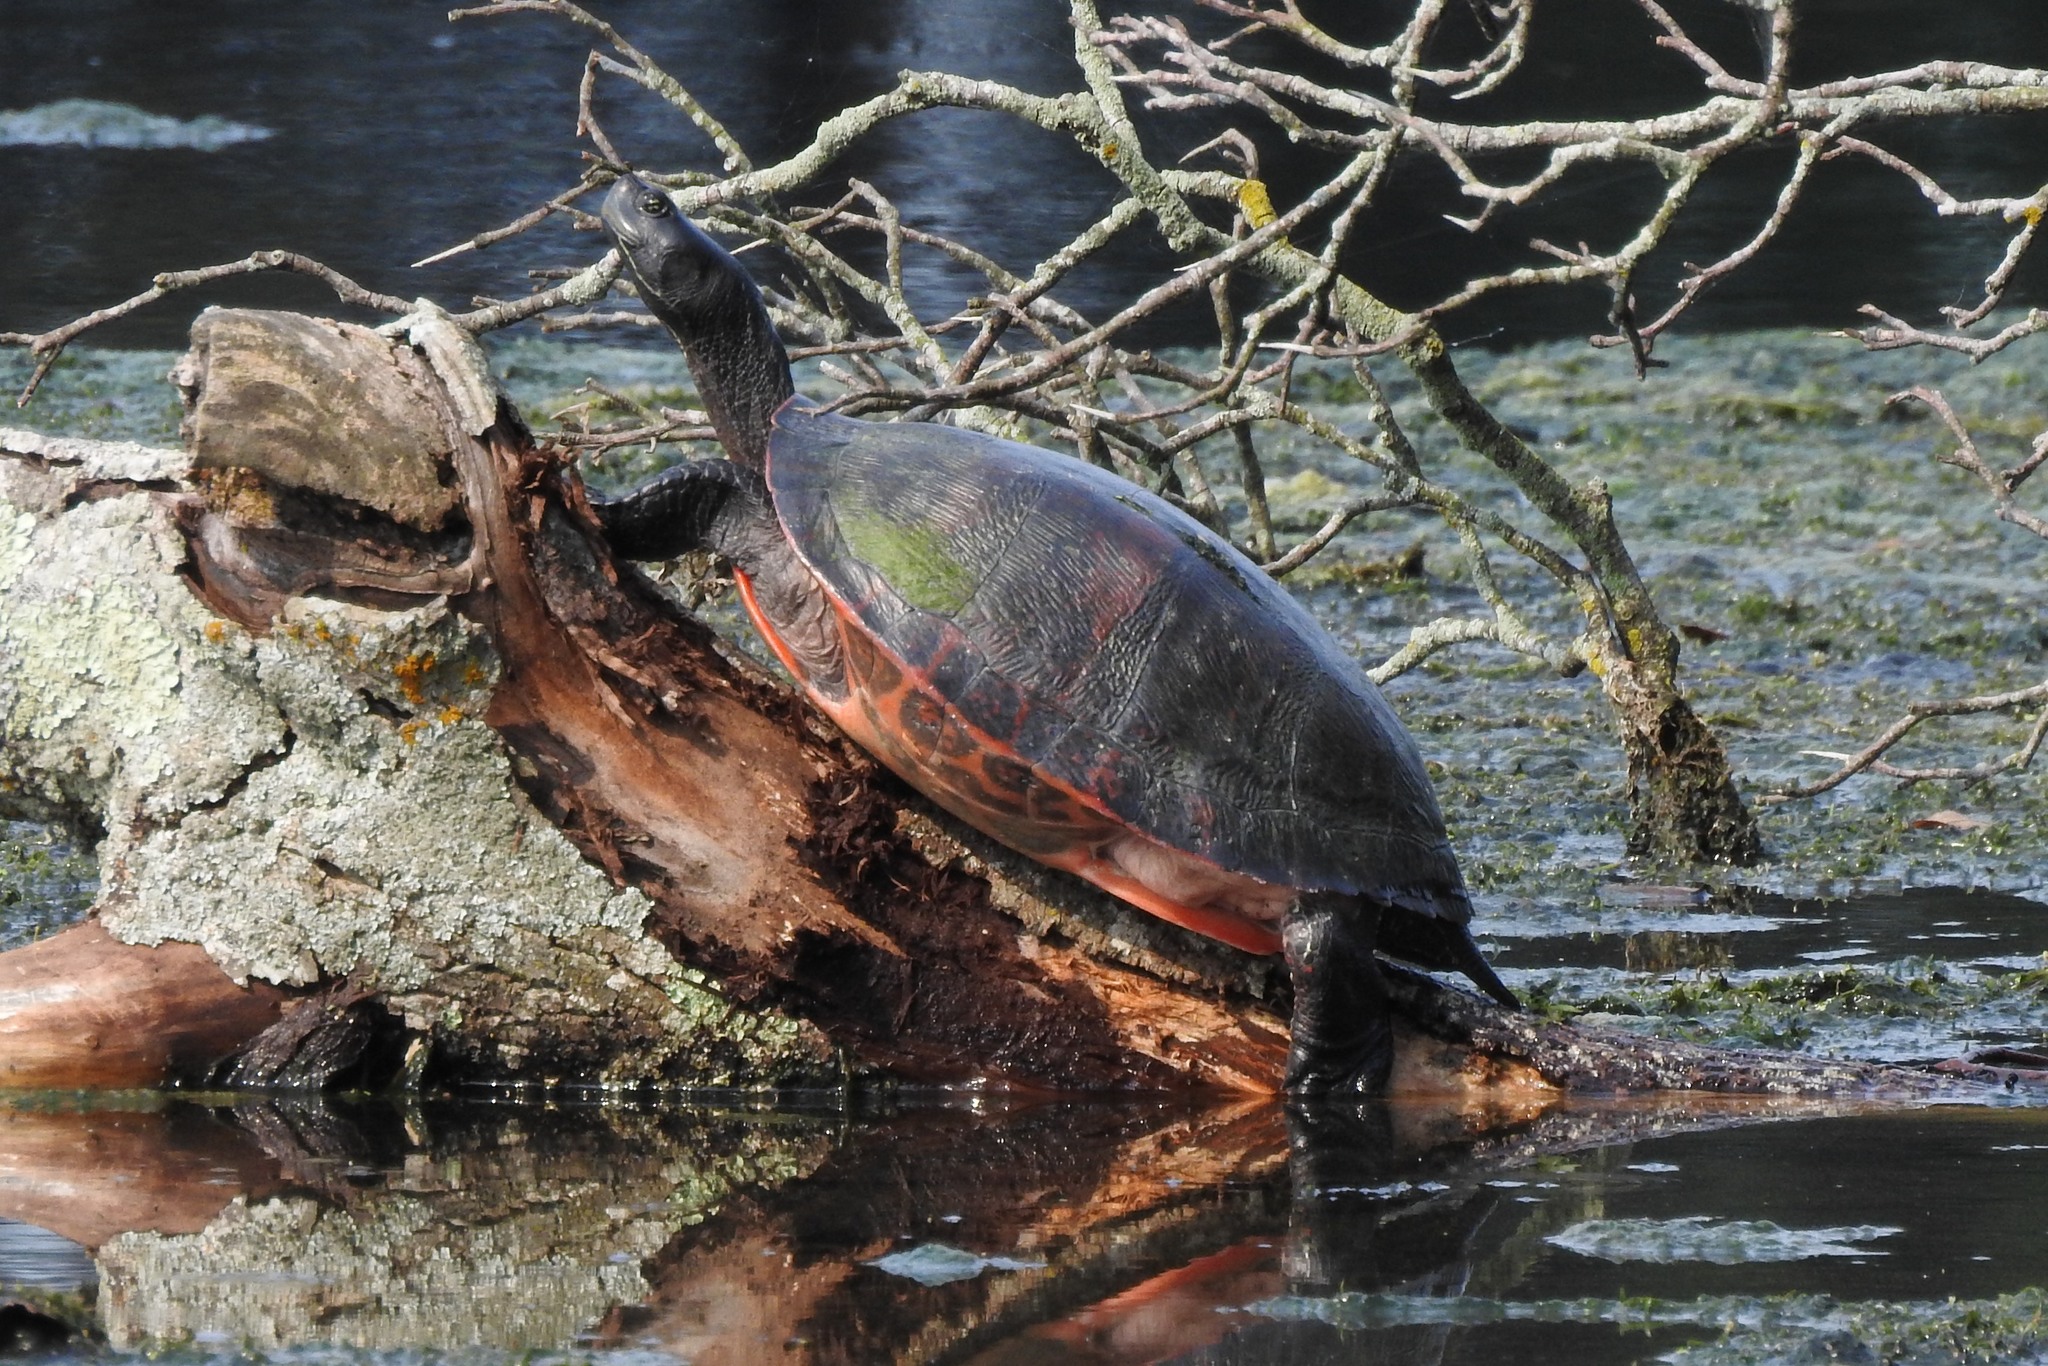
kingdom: Animalia
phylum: Chordata
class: Testudines
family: Emydidae
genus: Pseudemys
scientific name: Pseudemys rubriventris
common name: American red-bellied turtle
